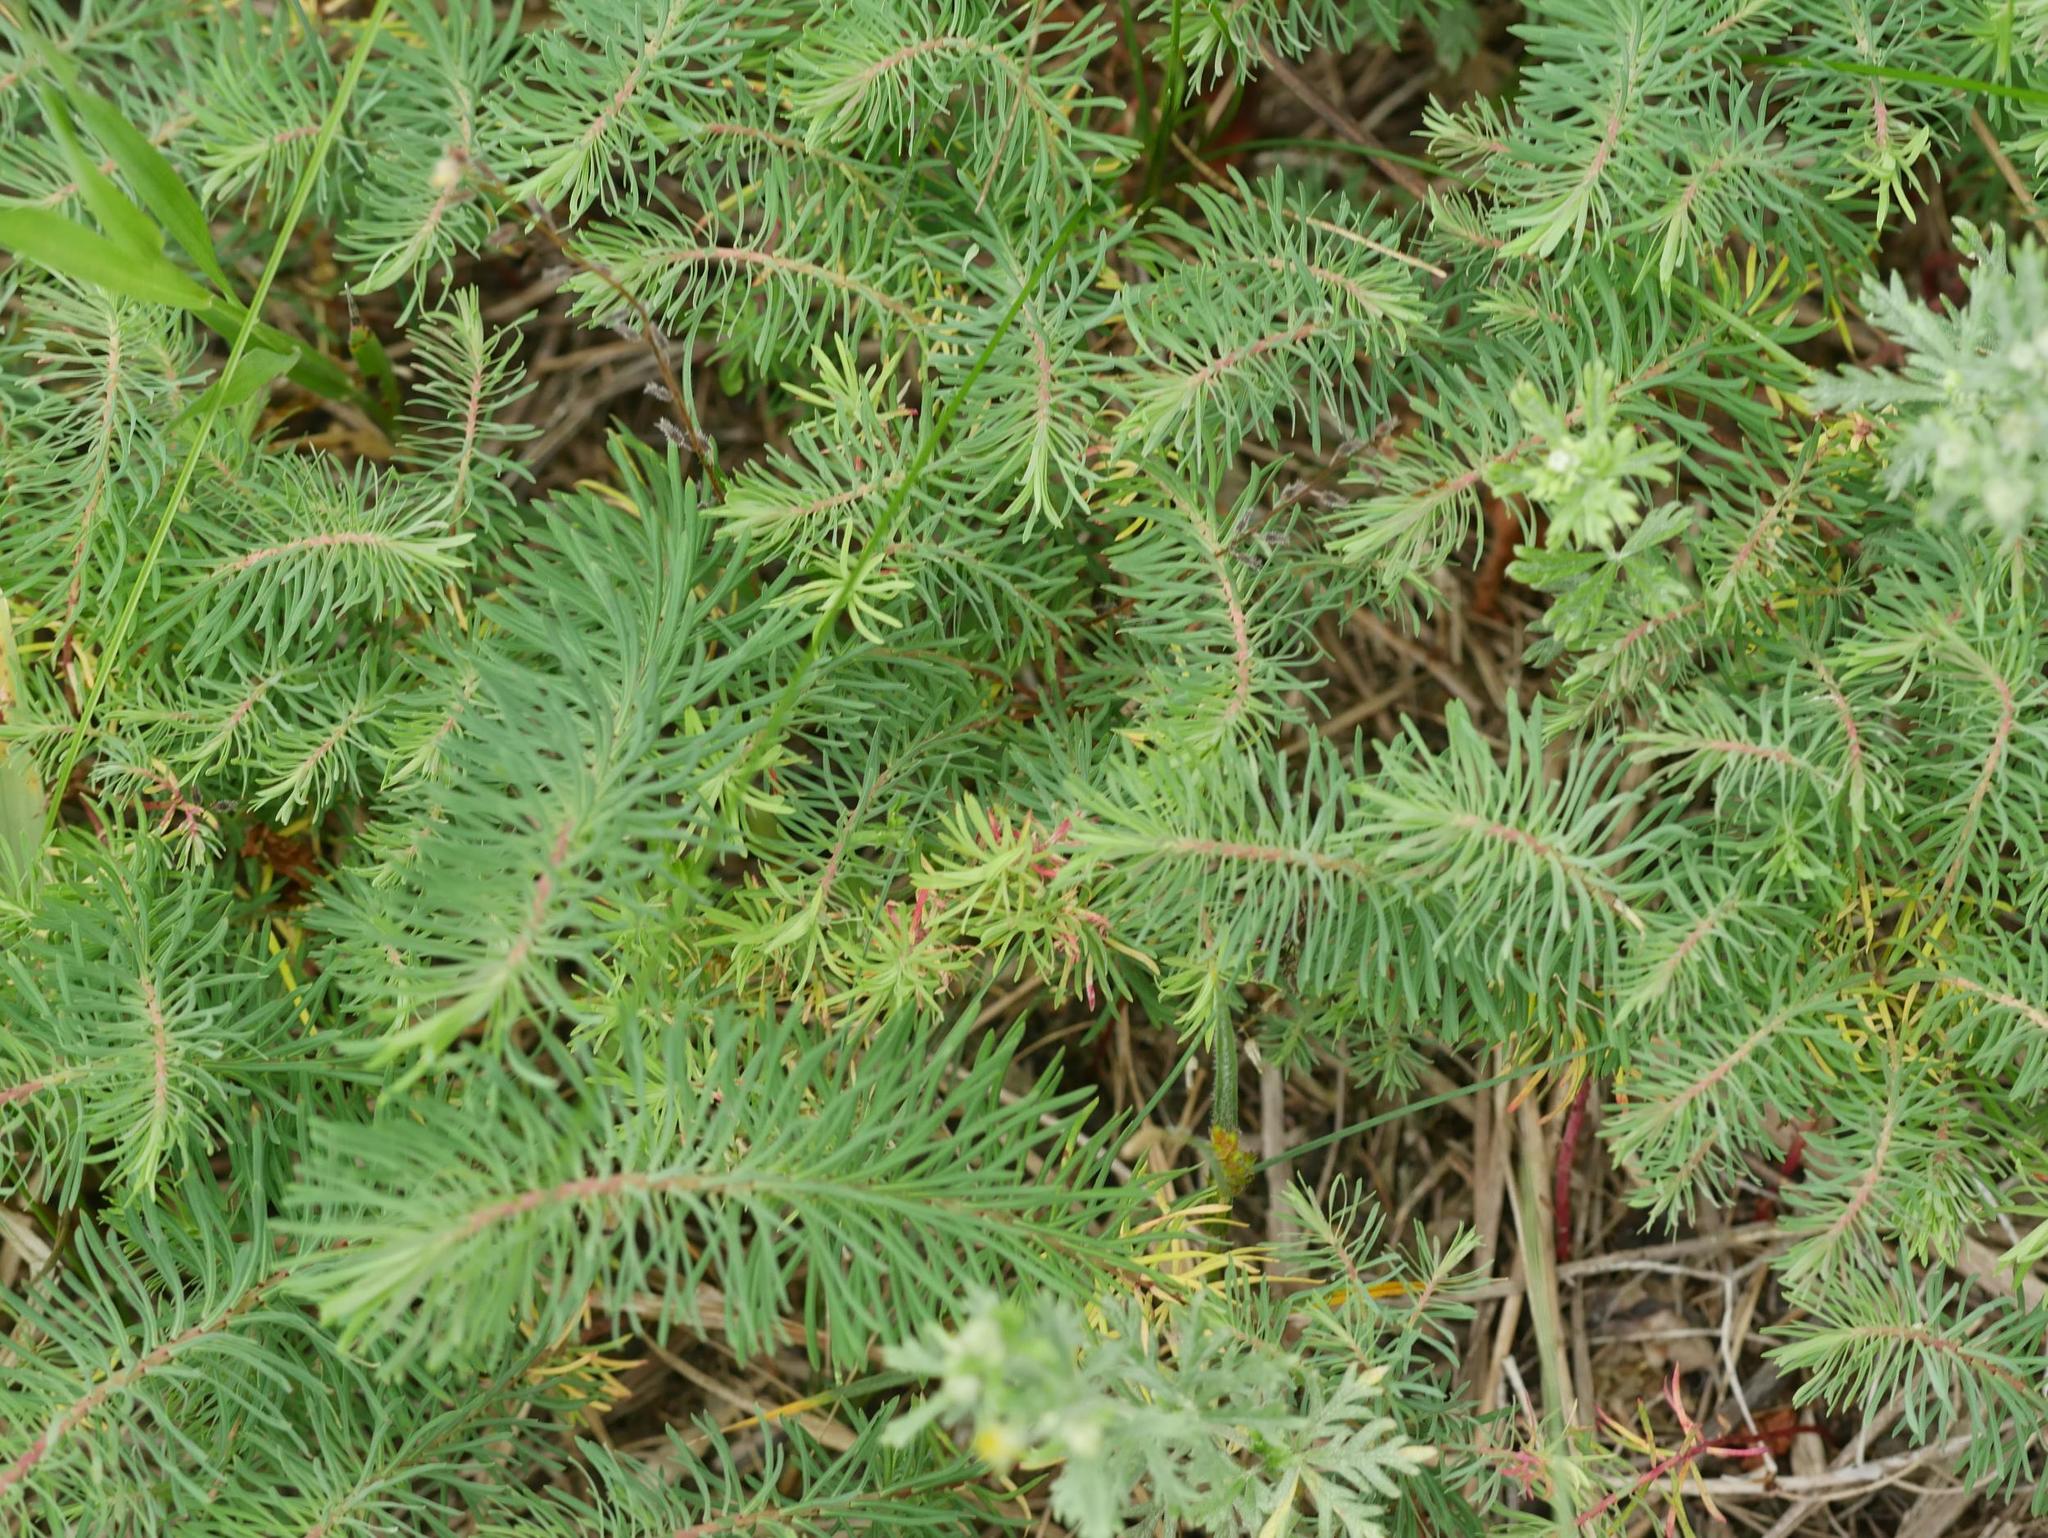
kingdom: Plantae
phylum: Tracheophyta
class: Magnoliopsida
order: Malpighiales
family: Euphorbiaceae
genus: Euphorbia
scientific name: Euphorbia cyparissias
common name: Cypress spurge
